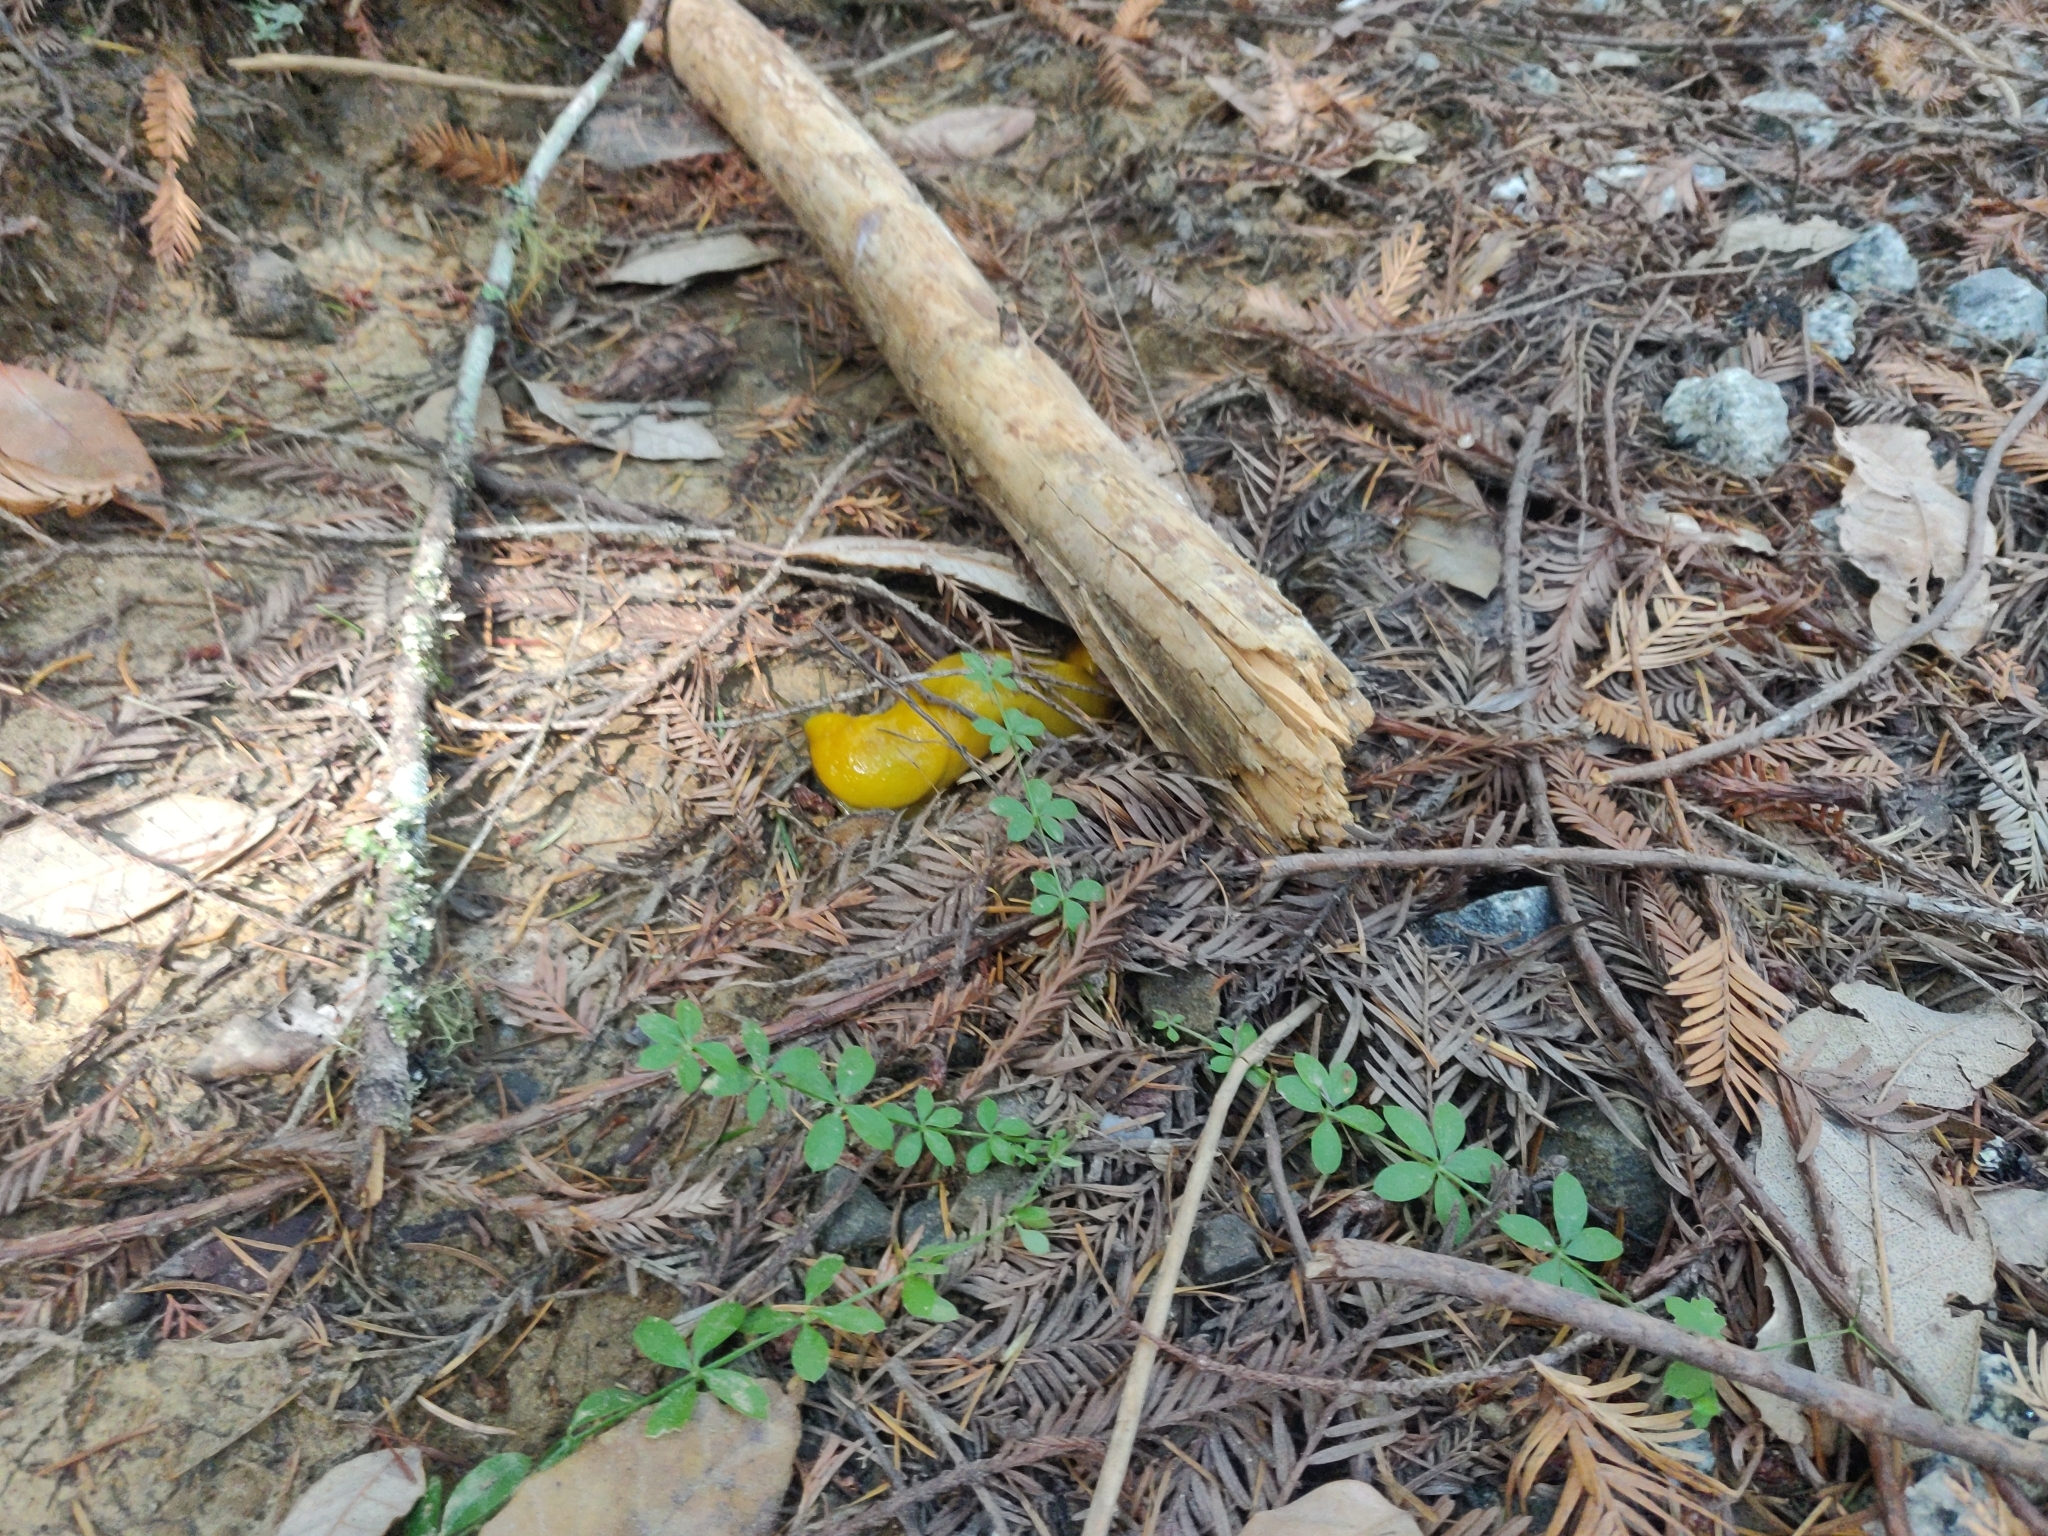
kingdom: Animalia
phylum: Mollusca
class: Gastropoda
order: Stylommatophora
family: Ariolimacidae
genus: Ariolimax
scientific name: Ariolimax californicus
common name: California banana slug
